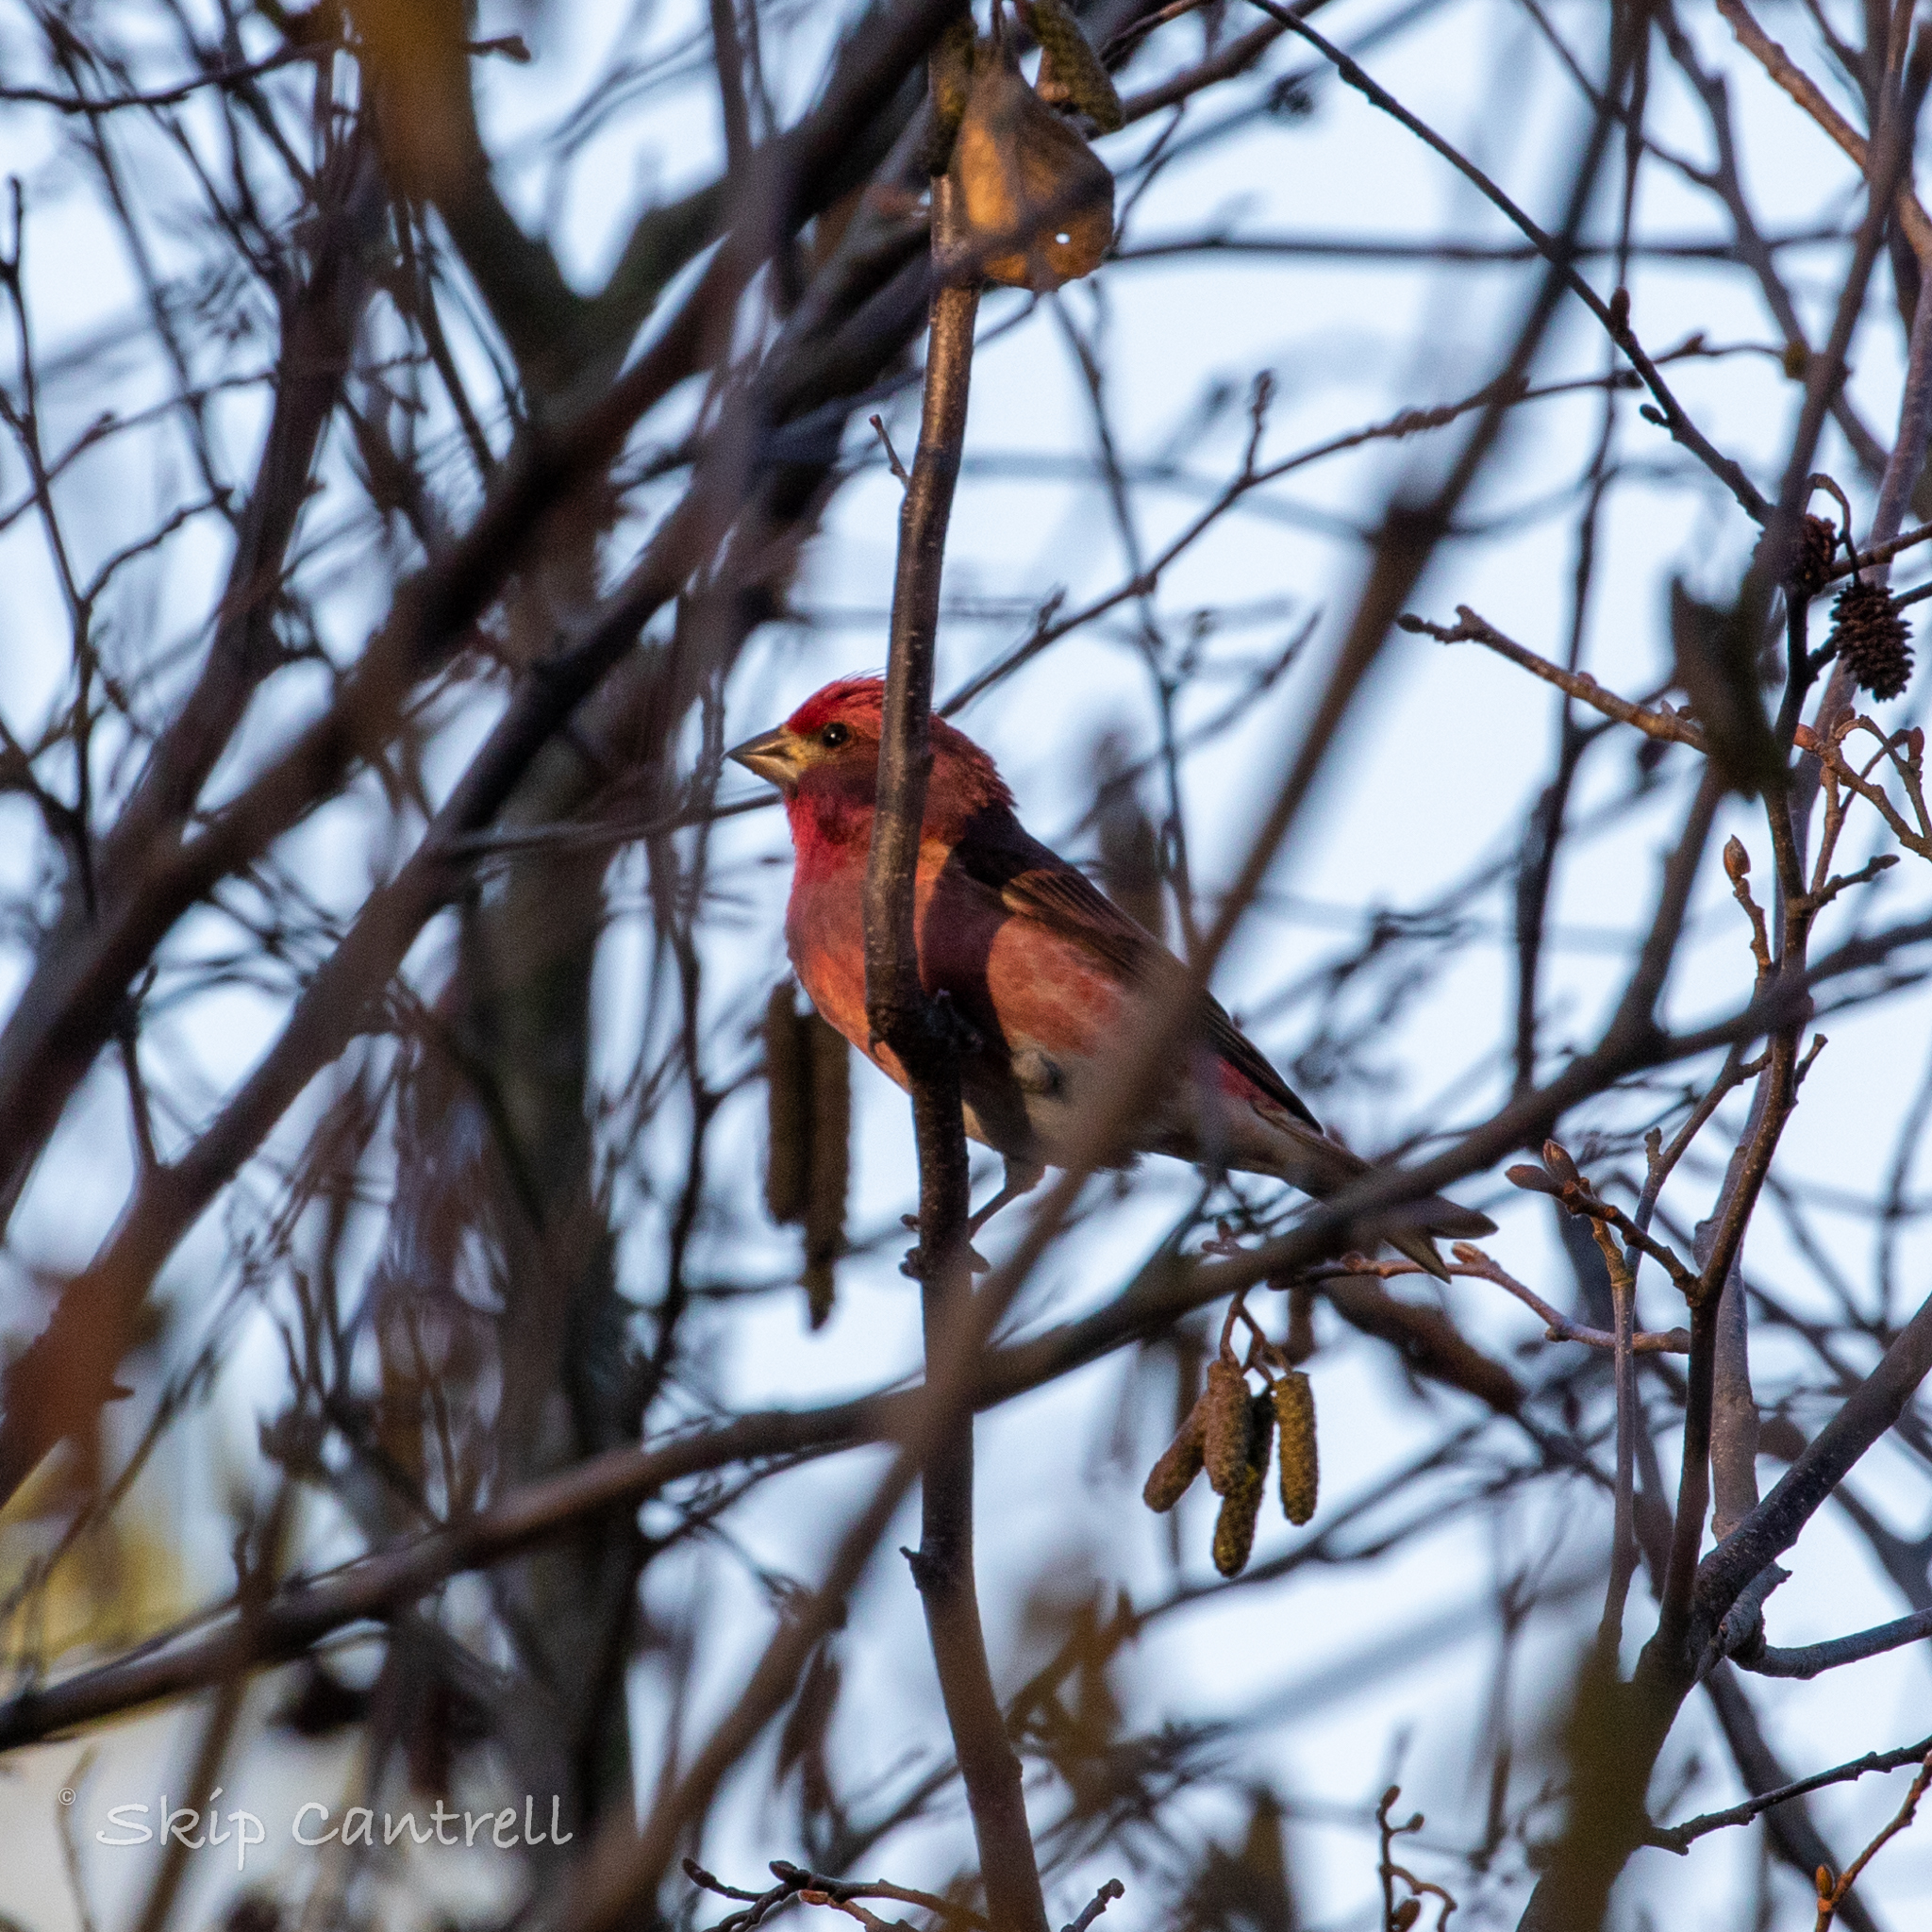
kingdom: Animalia
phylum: Chordata
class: Aves
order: Passeriformes
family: Fringillidae
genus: Haemorhous
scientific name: Haemorhous purpureus
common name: Purple finch
